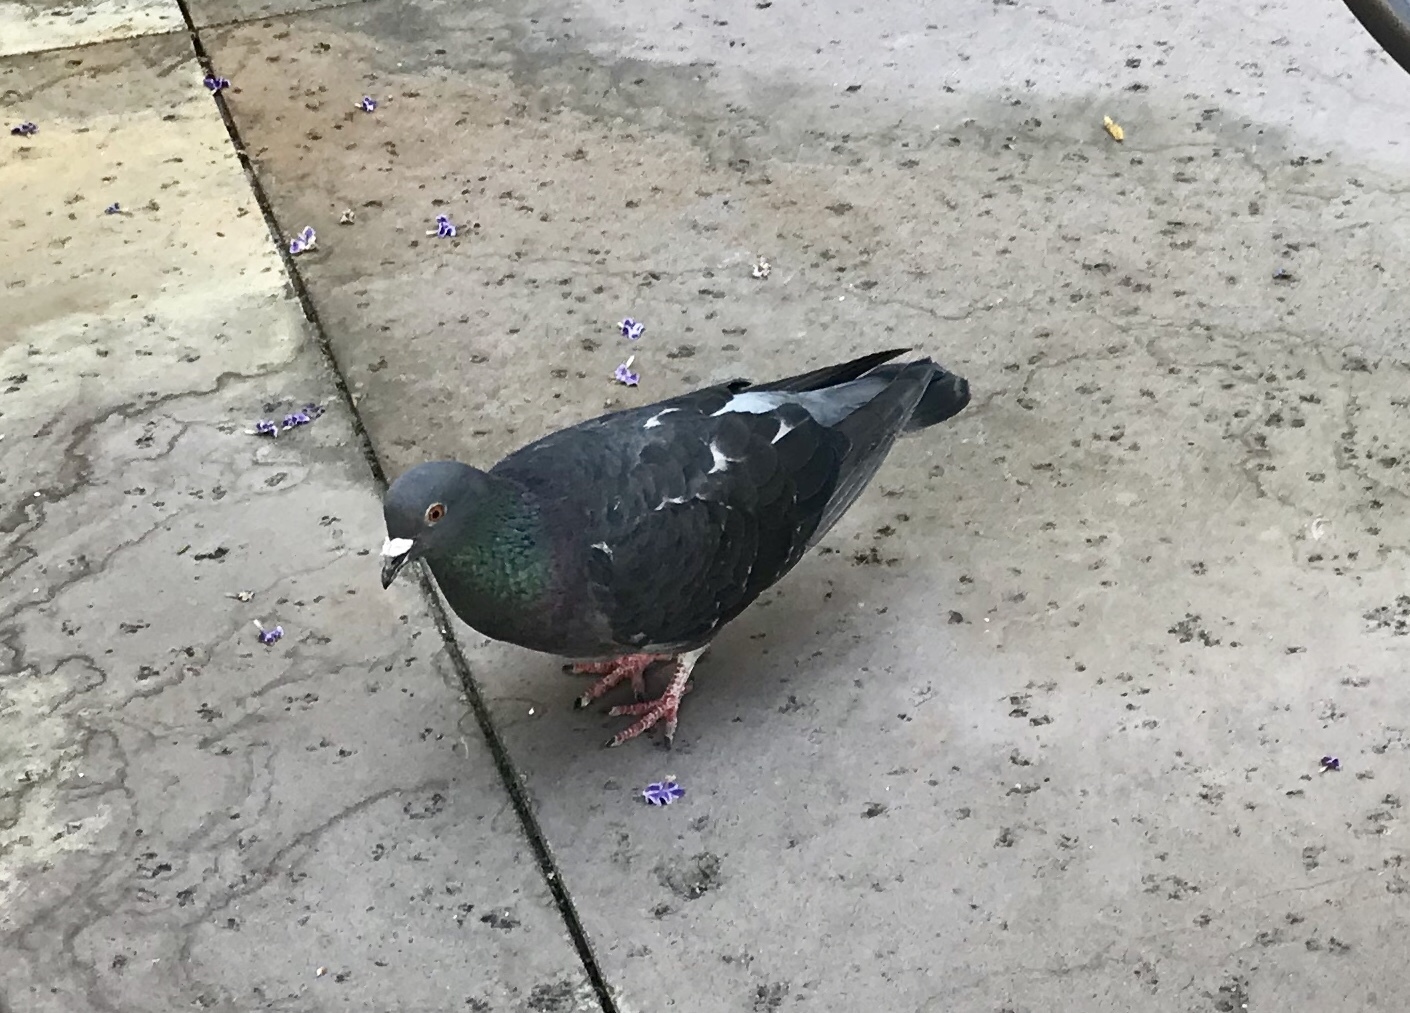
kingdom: Animalia
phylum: Chordata
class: Aves
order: Columbiformes
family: Columbidae
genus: Columba
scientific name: Columba livia
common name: Rock pigeon
